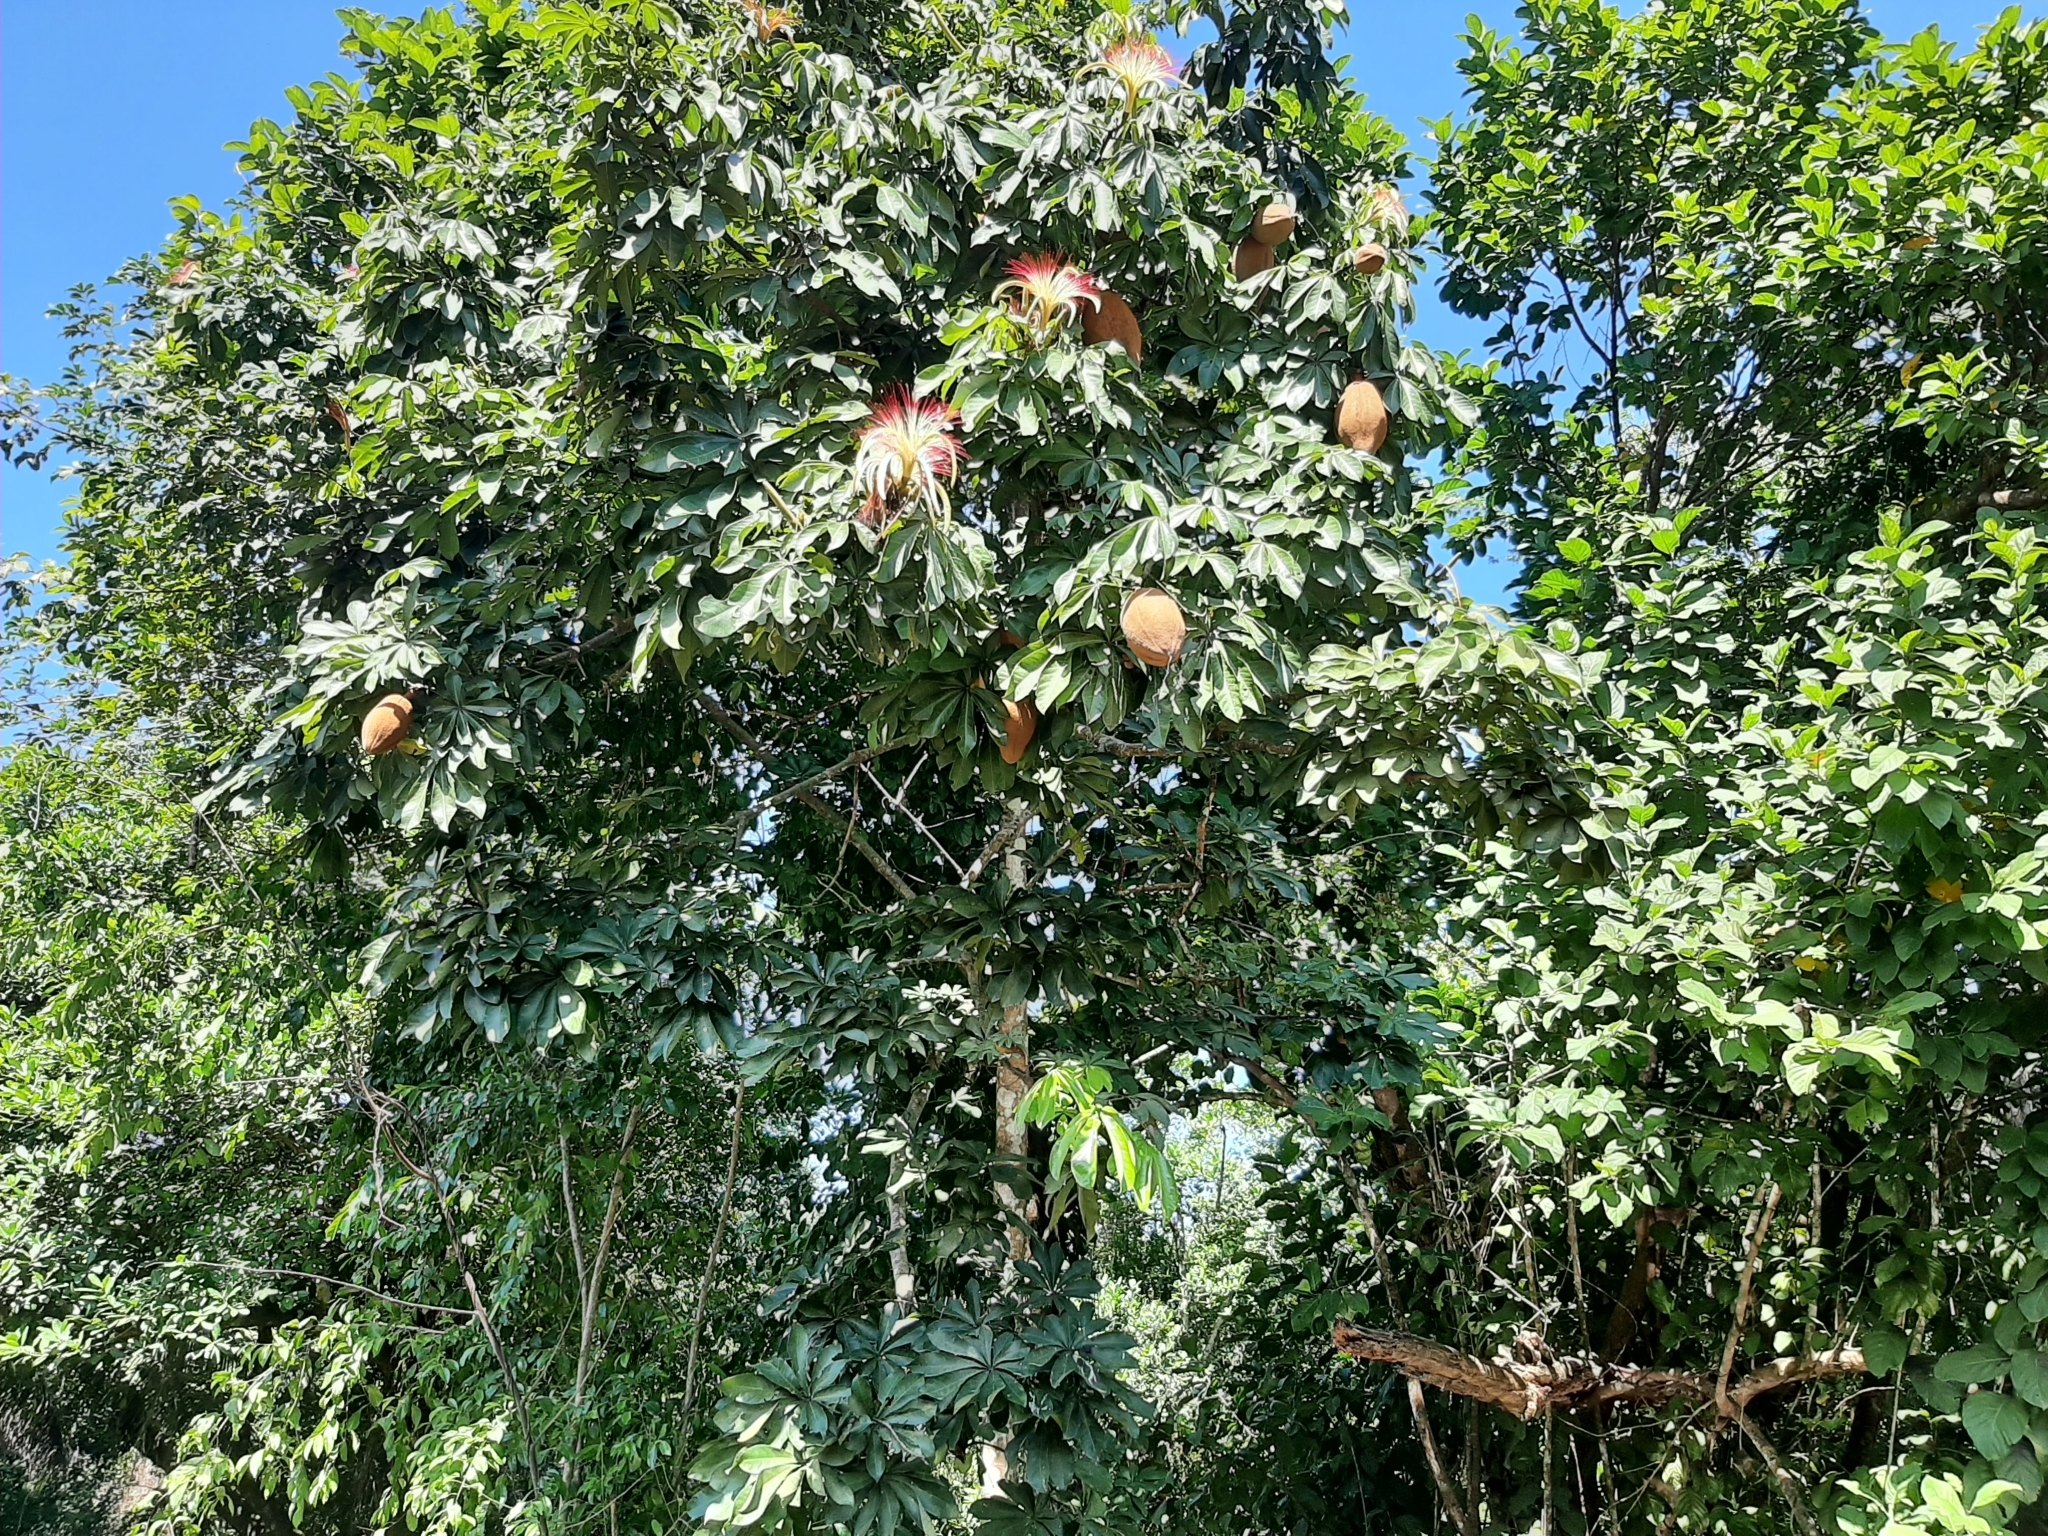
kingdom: Plantae
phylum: Tracheophyta
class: Magnoliopsida
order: Malvales
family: Malvaceae
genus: Pachira
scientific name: Pachira aquatica
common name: Provision-tree
